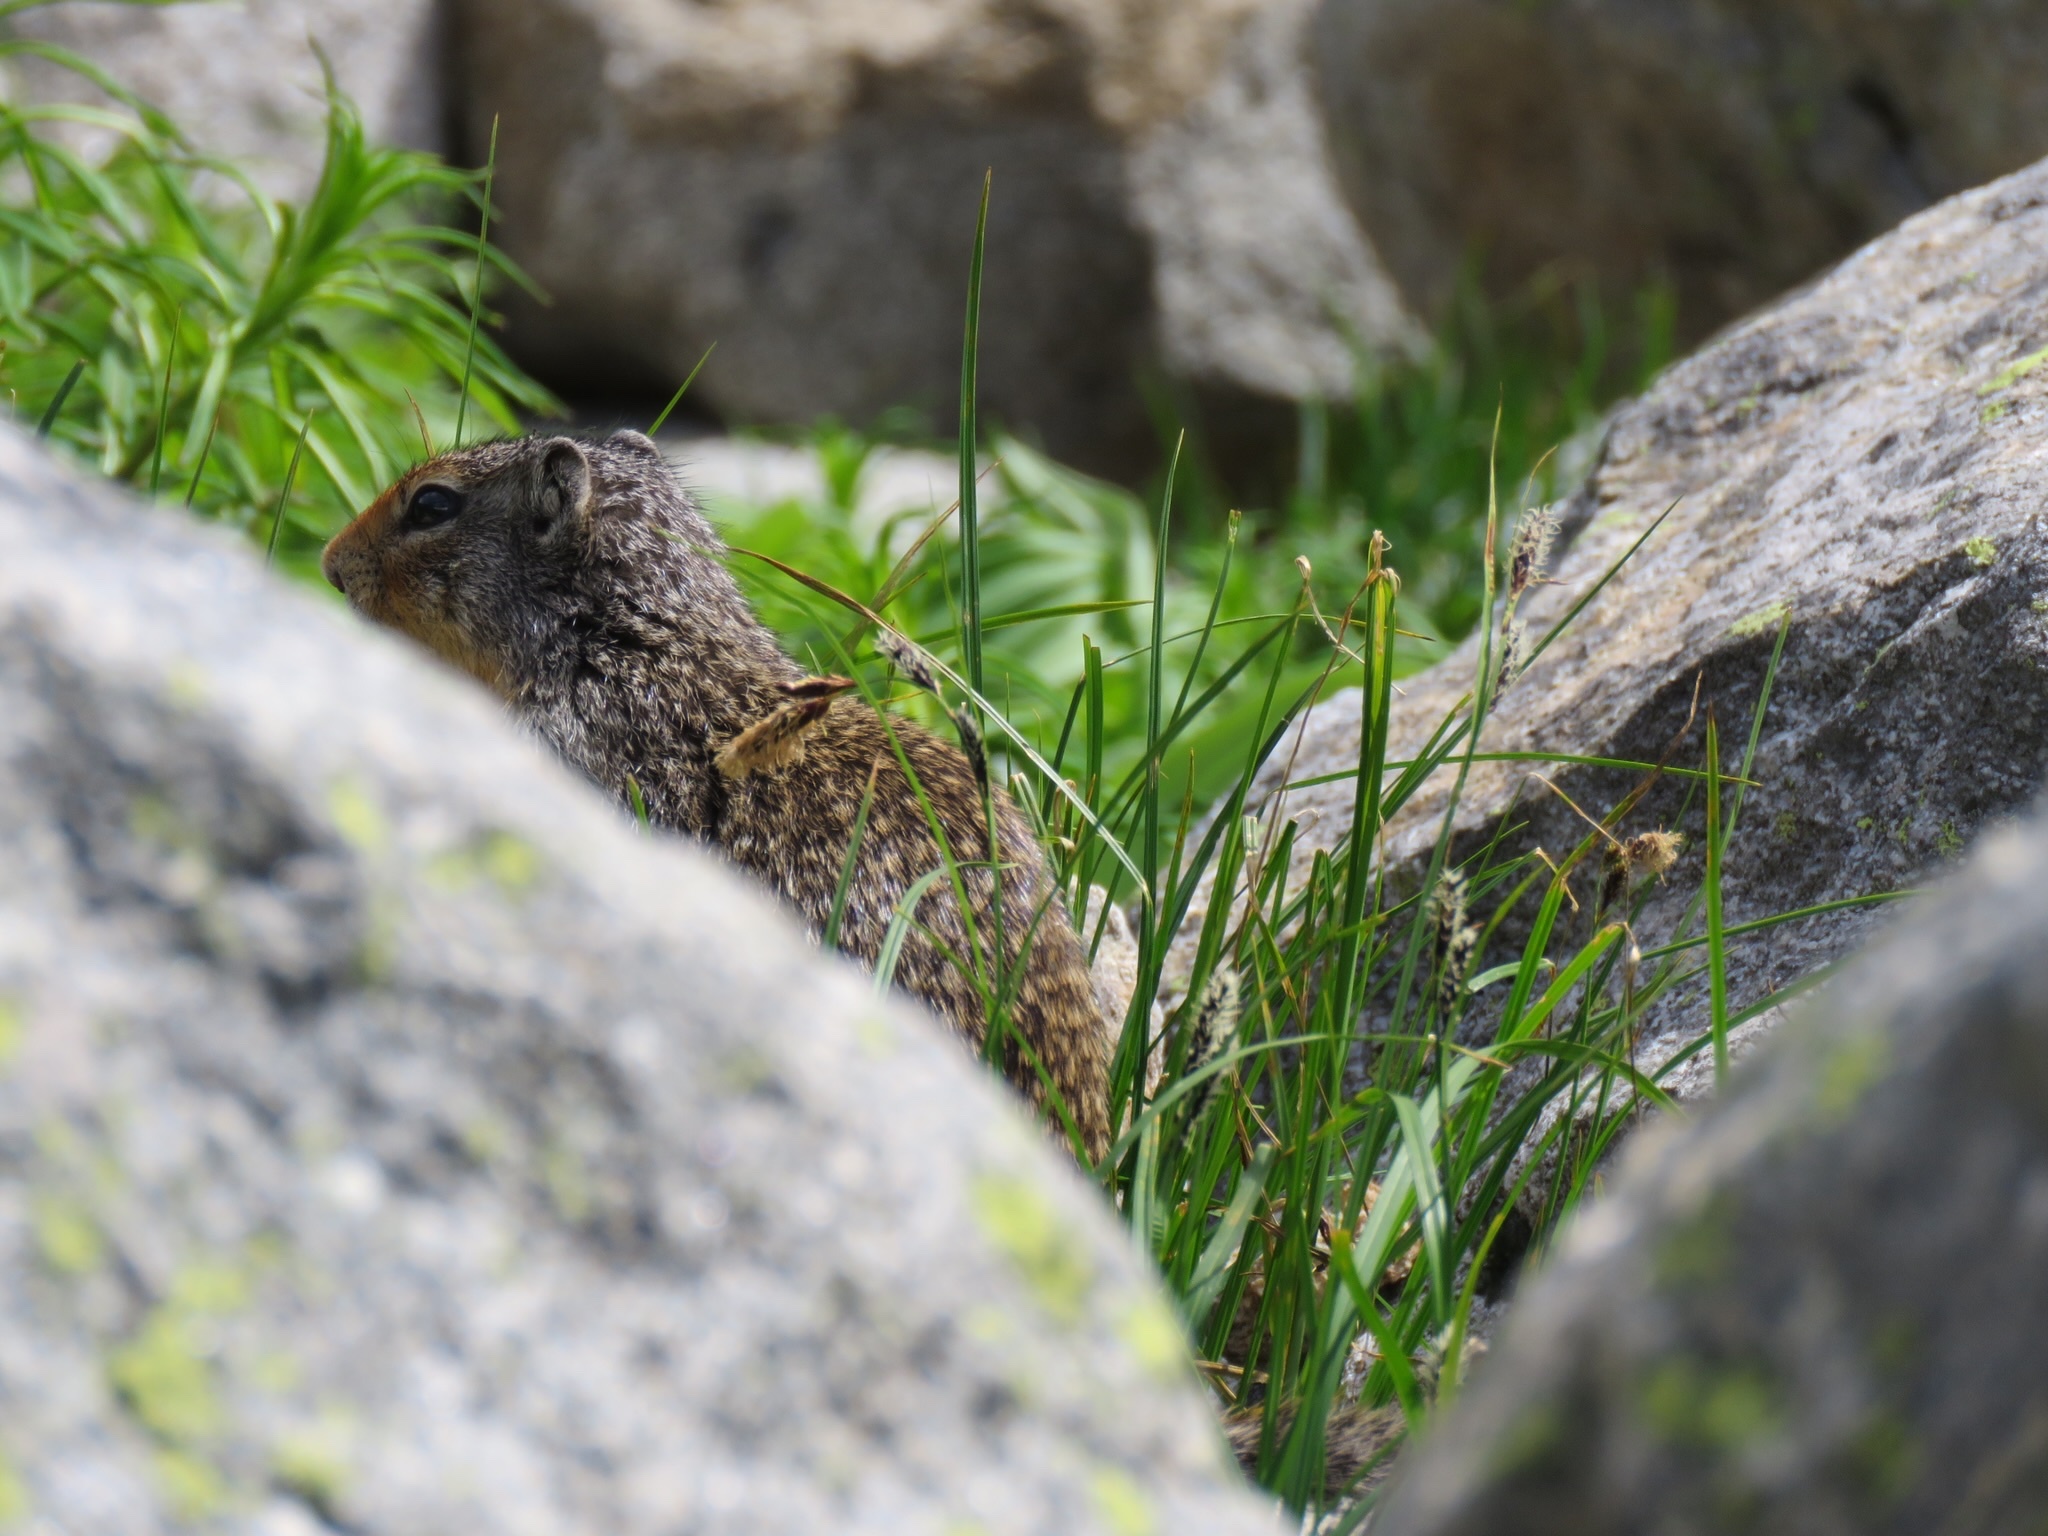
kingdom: Animalia
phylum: Chordata
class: Mammalia
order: Rodentia
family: Sciuridae
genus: Urocitellus
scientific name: Urocitellus columbianus
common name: Columbian ground squirrel
